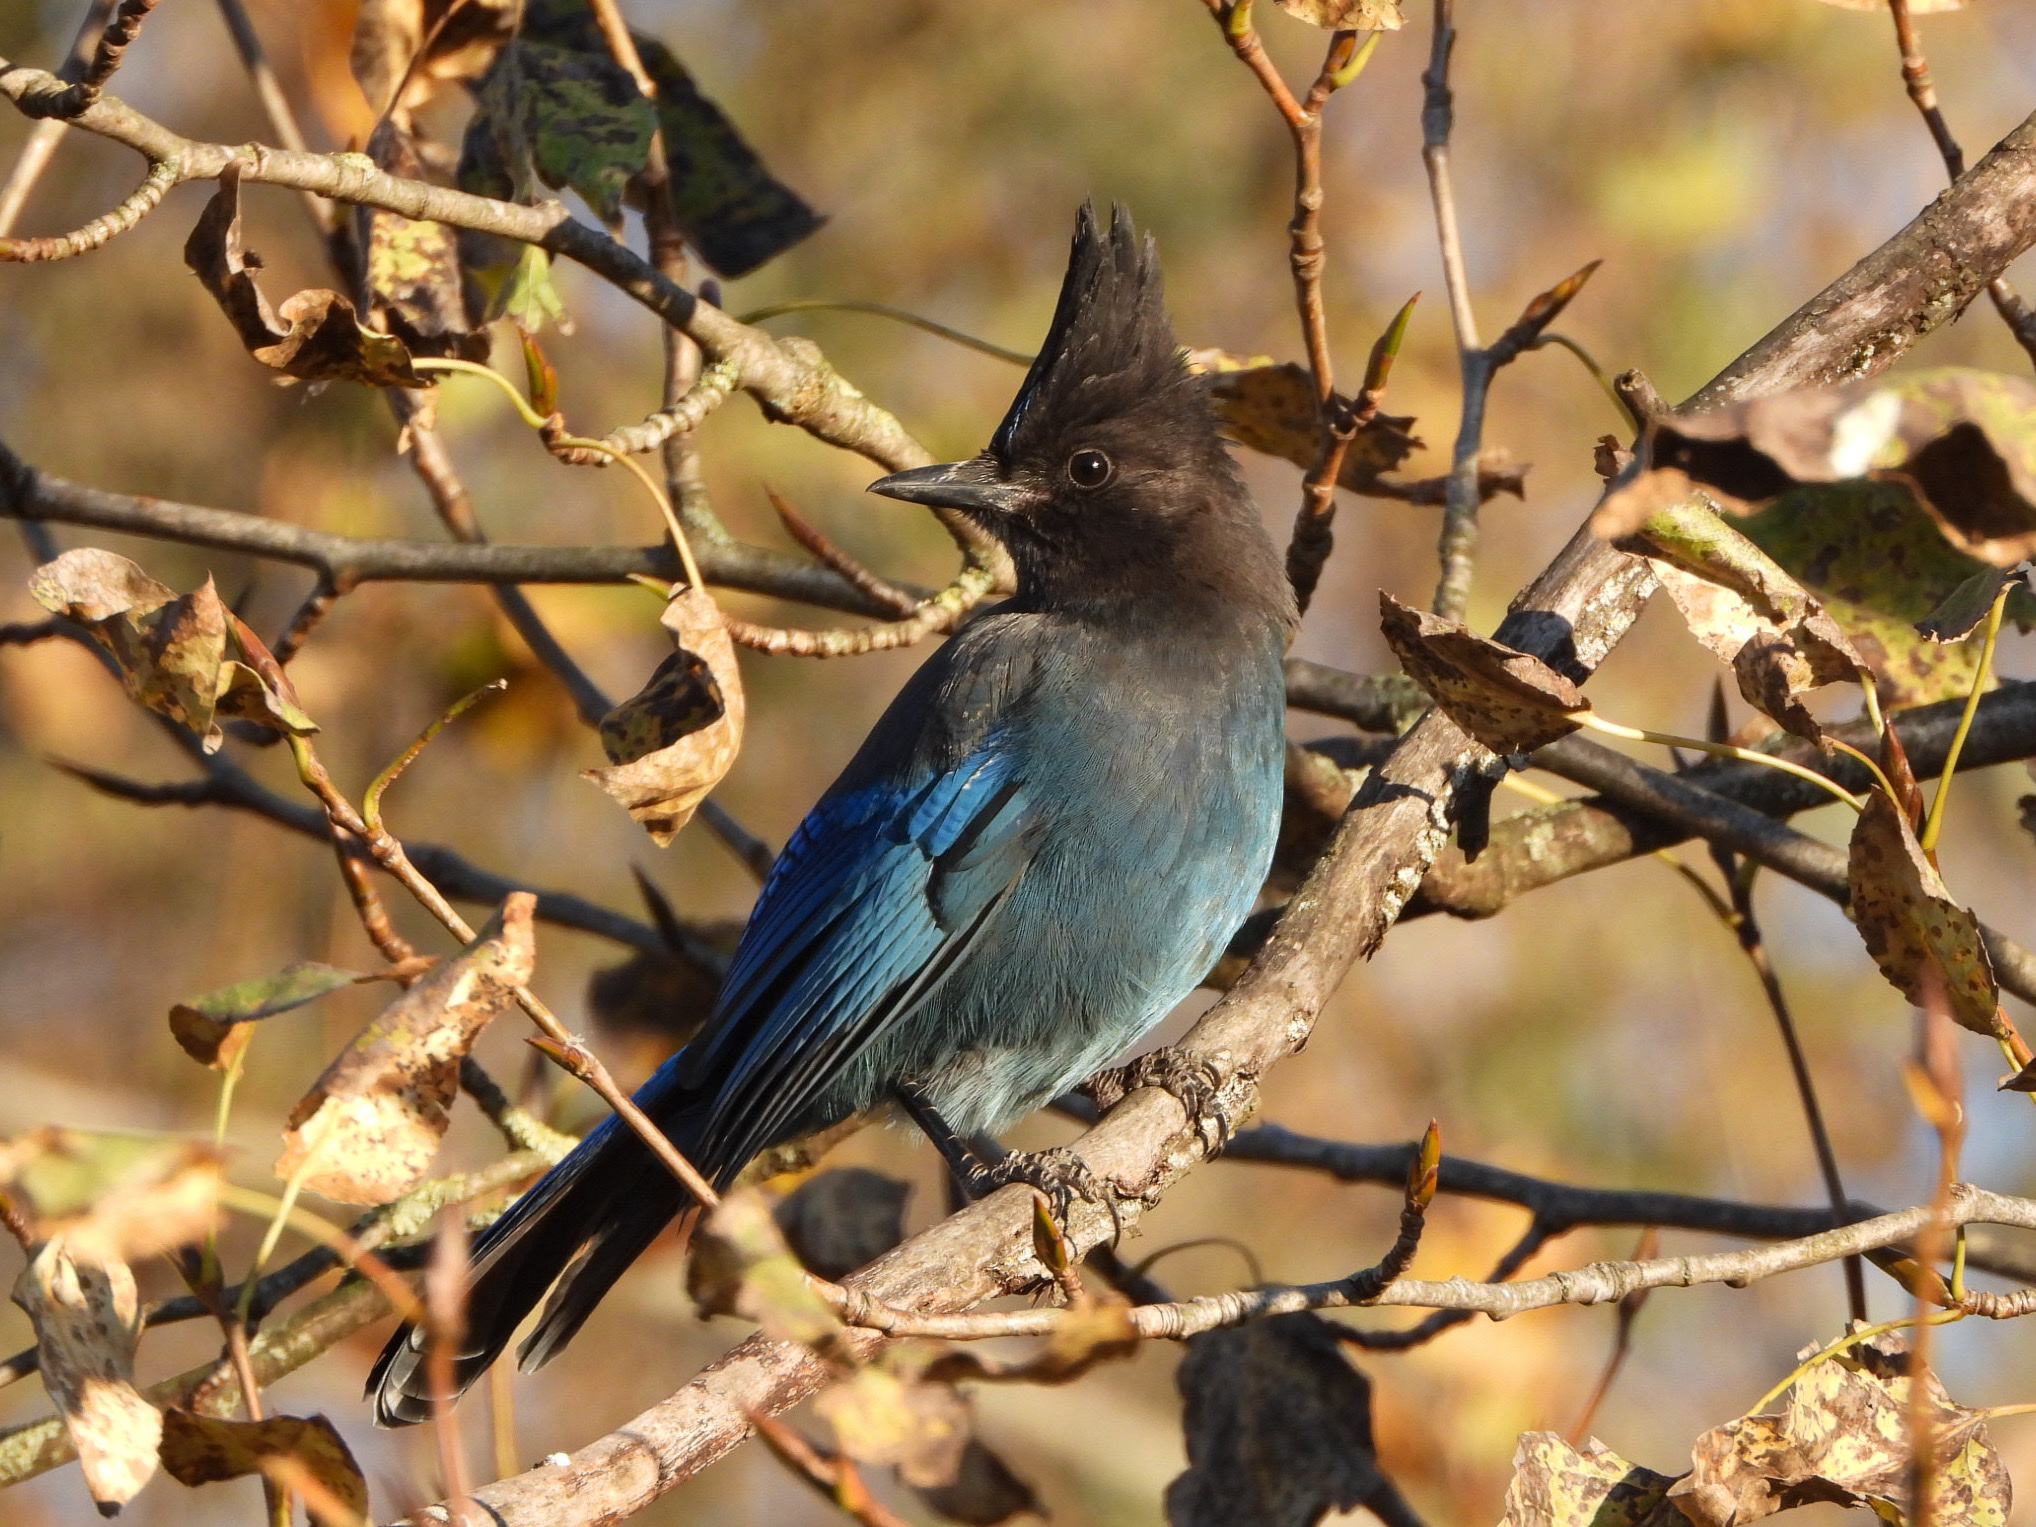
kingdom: Animalia
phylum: Chordata
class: Aves
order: Passeriformes
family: Corvidae
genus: Cyanocitta
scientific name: Cyanocitta stelleri
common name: Steller's jay
